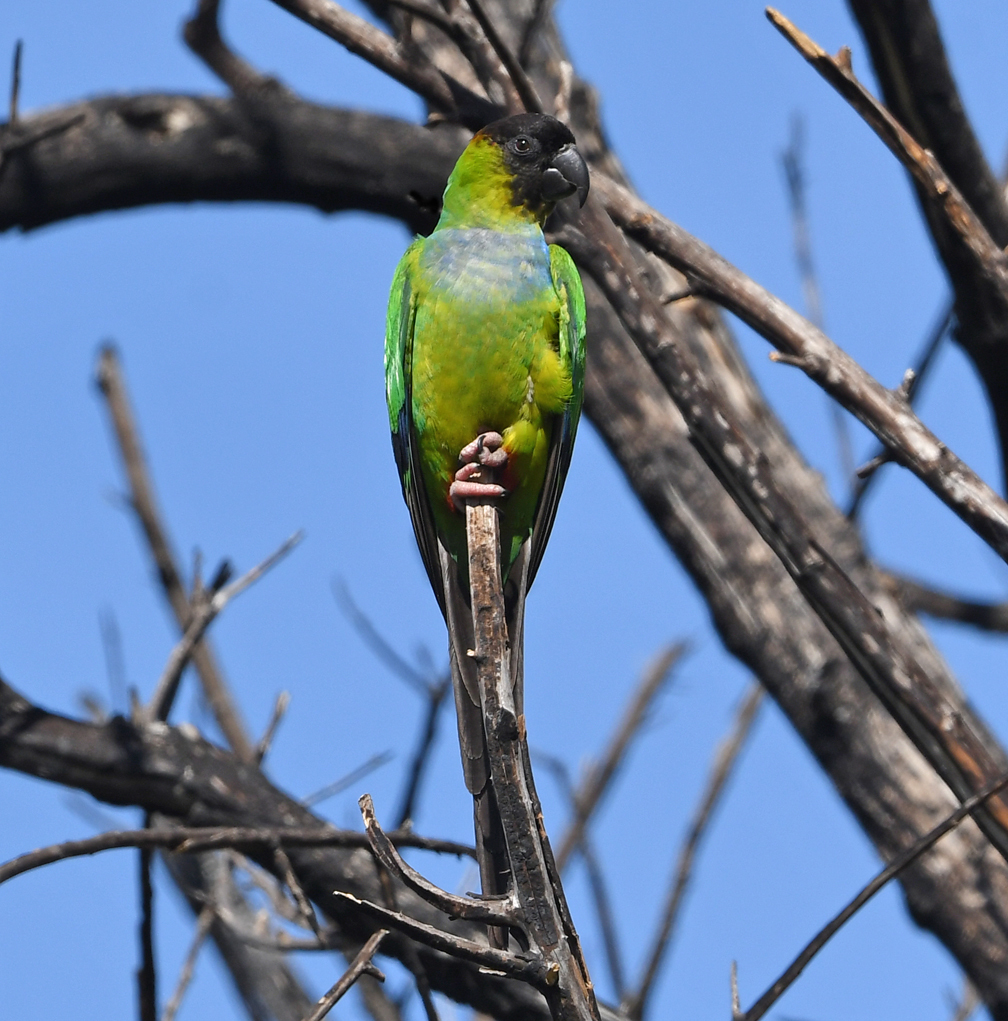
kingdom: Animalia
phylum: Chordata
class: Aves
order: Psittaciformes
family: Psittacidae
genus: Nandayus
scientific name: Nandayus nenday
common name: Nanday parakeet
